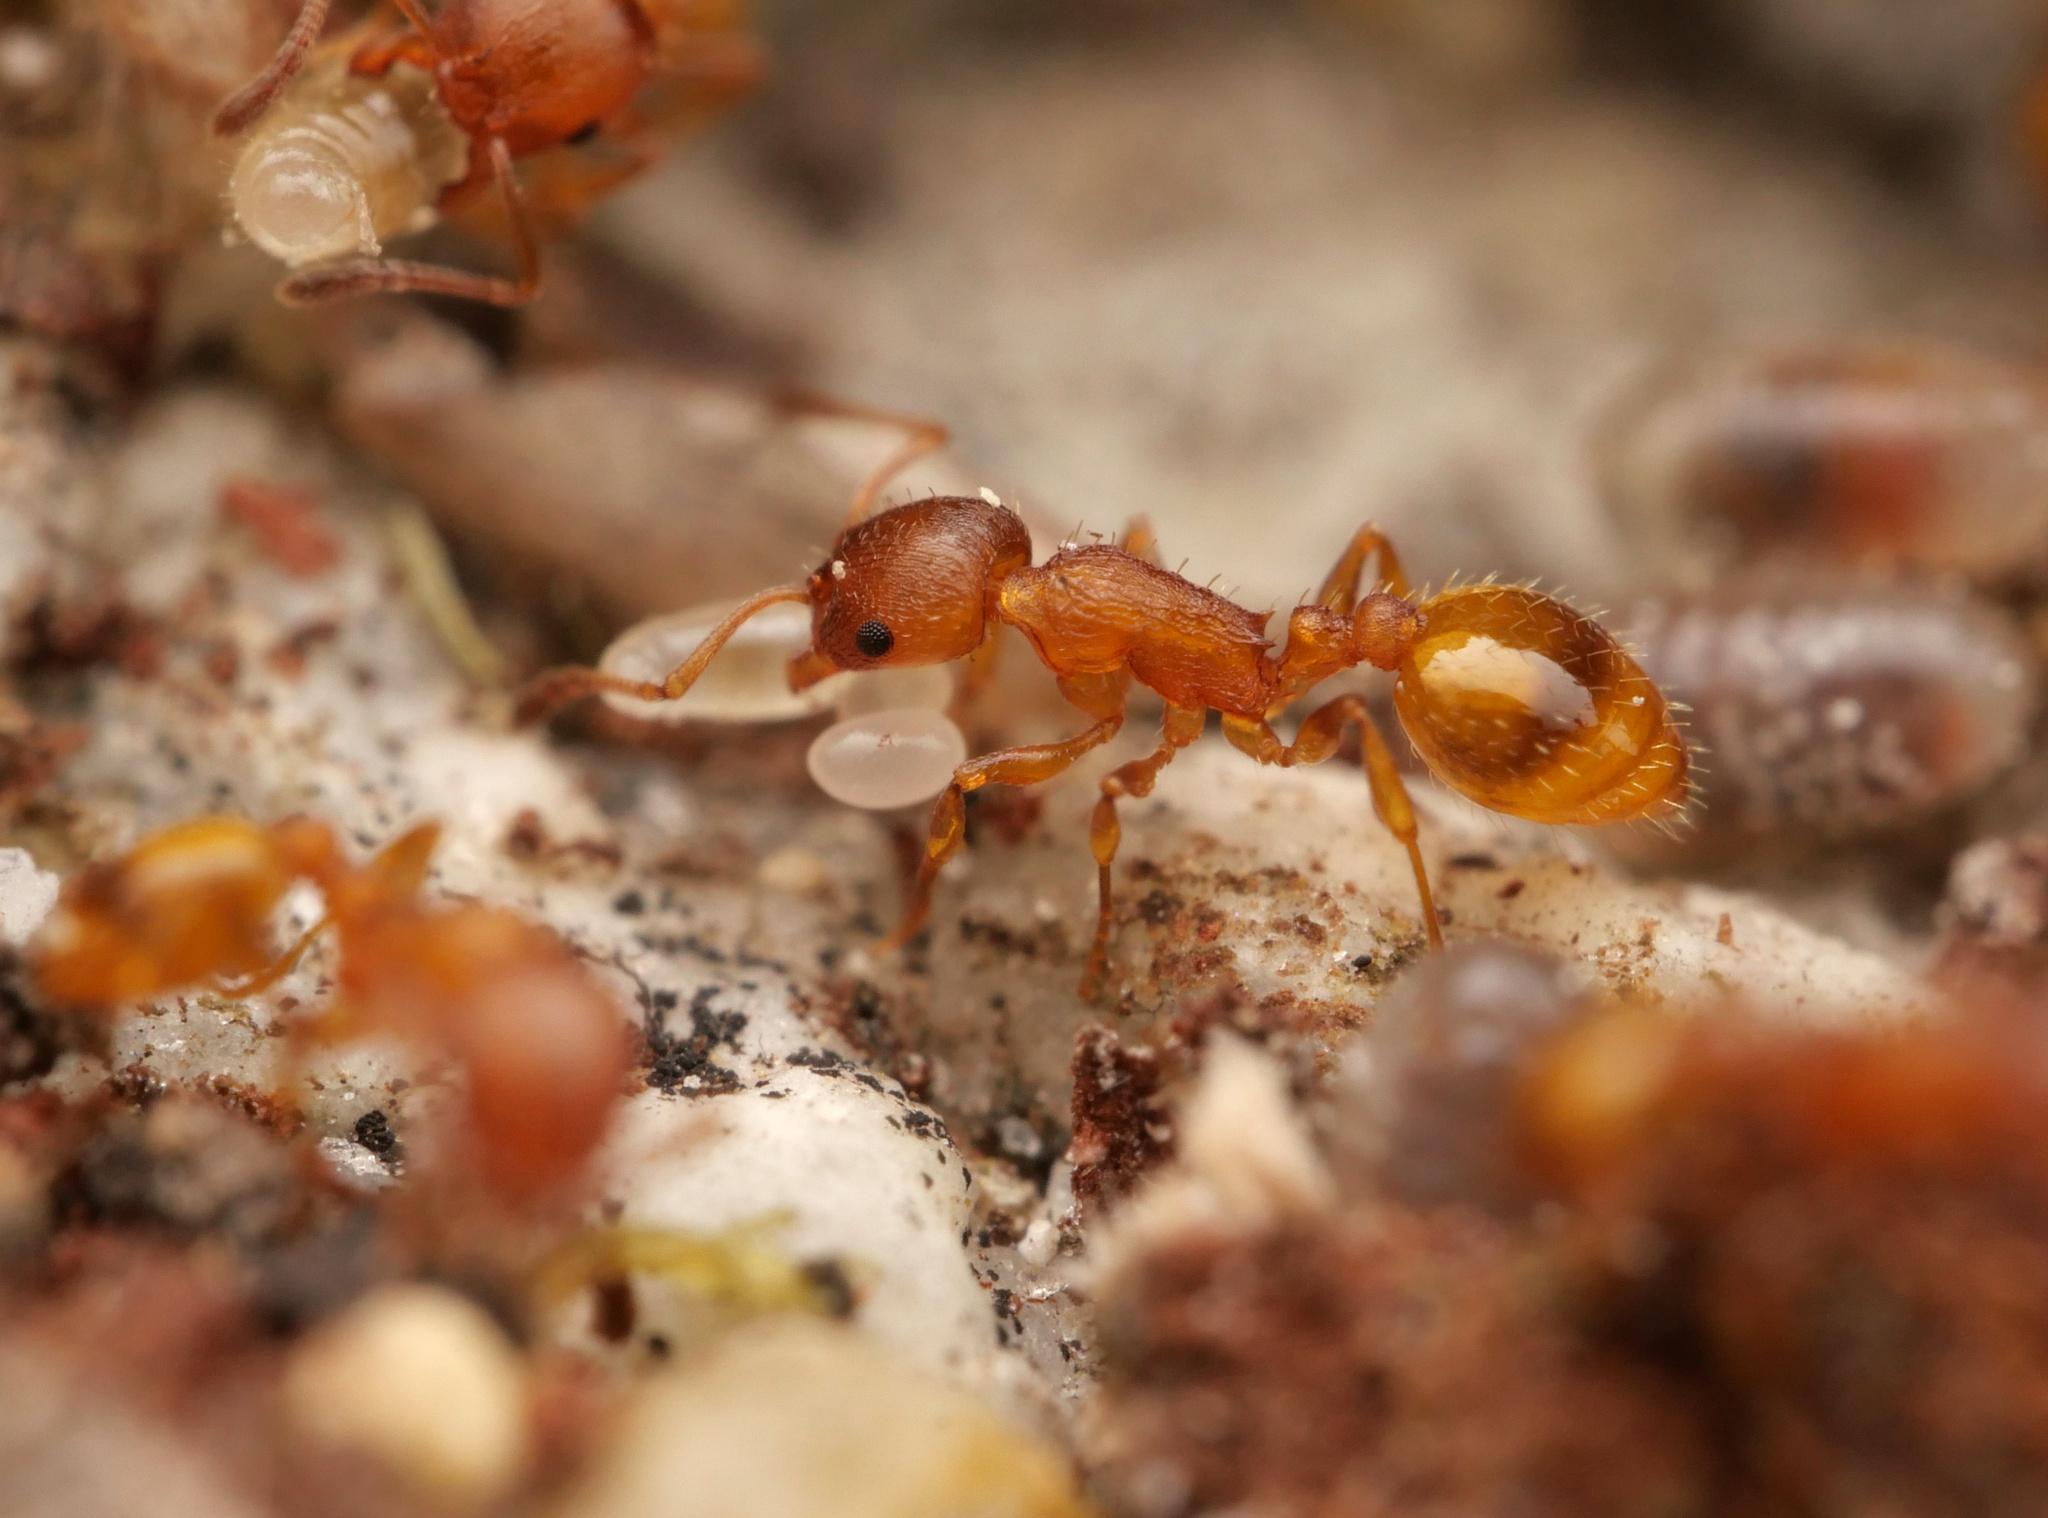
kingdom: Animalia
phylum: Arthropoda
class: Insecta
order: Hymenoptera
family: Formicidae
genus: Leptothorax
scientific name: Leptothorax unifasciatus
